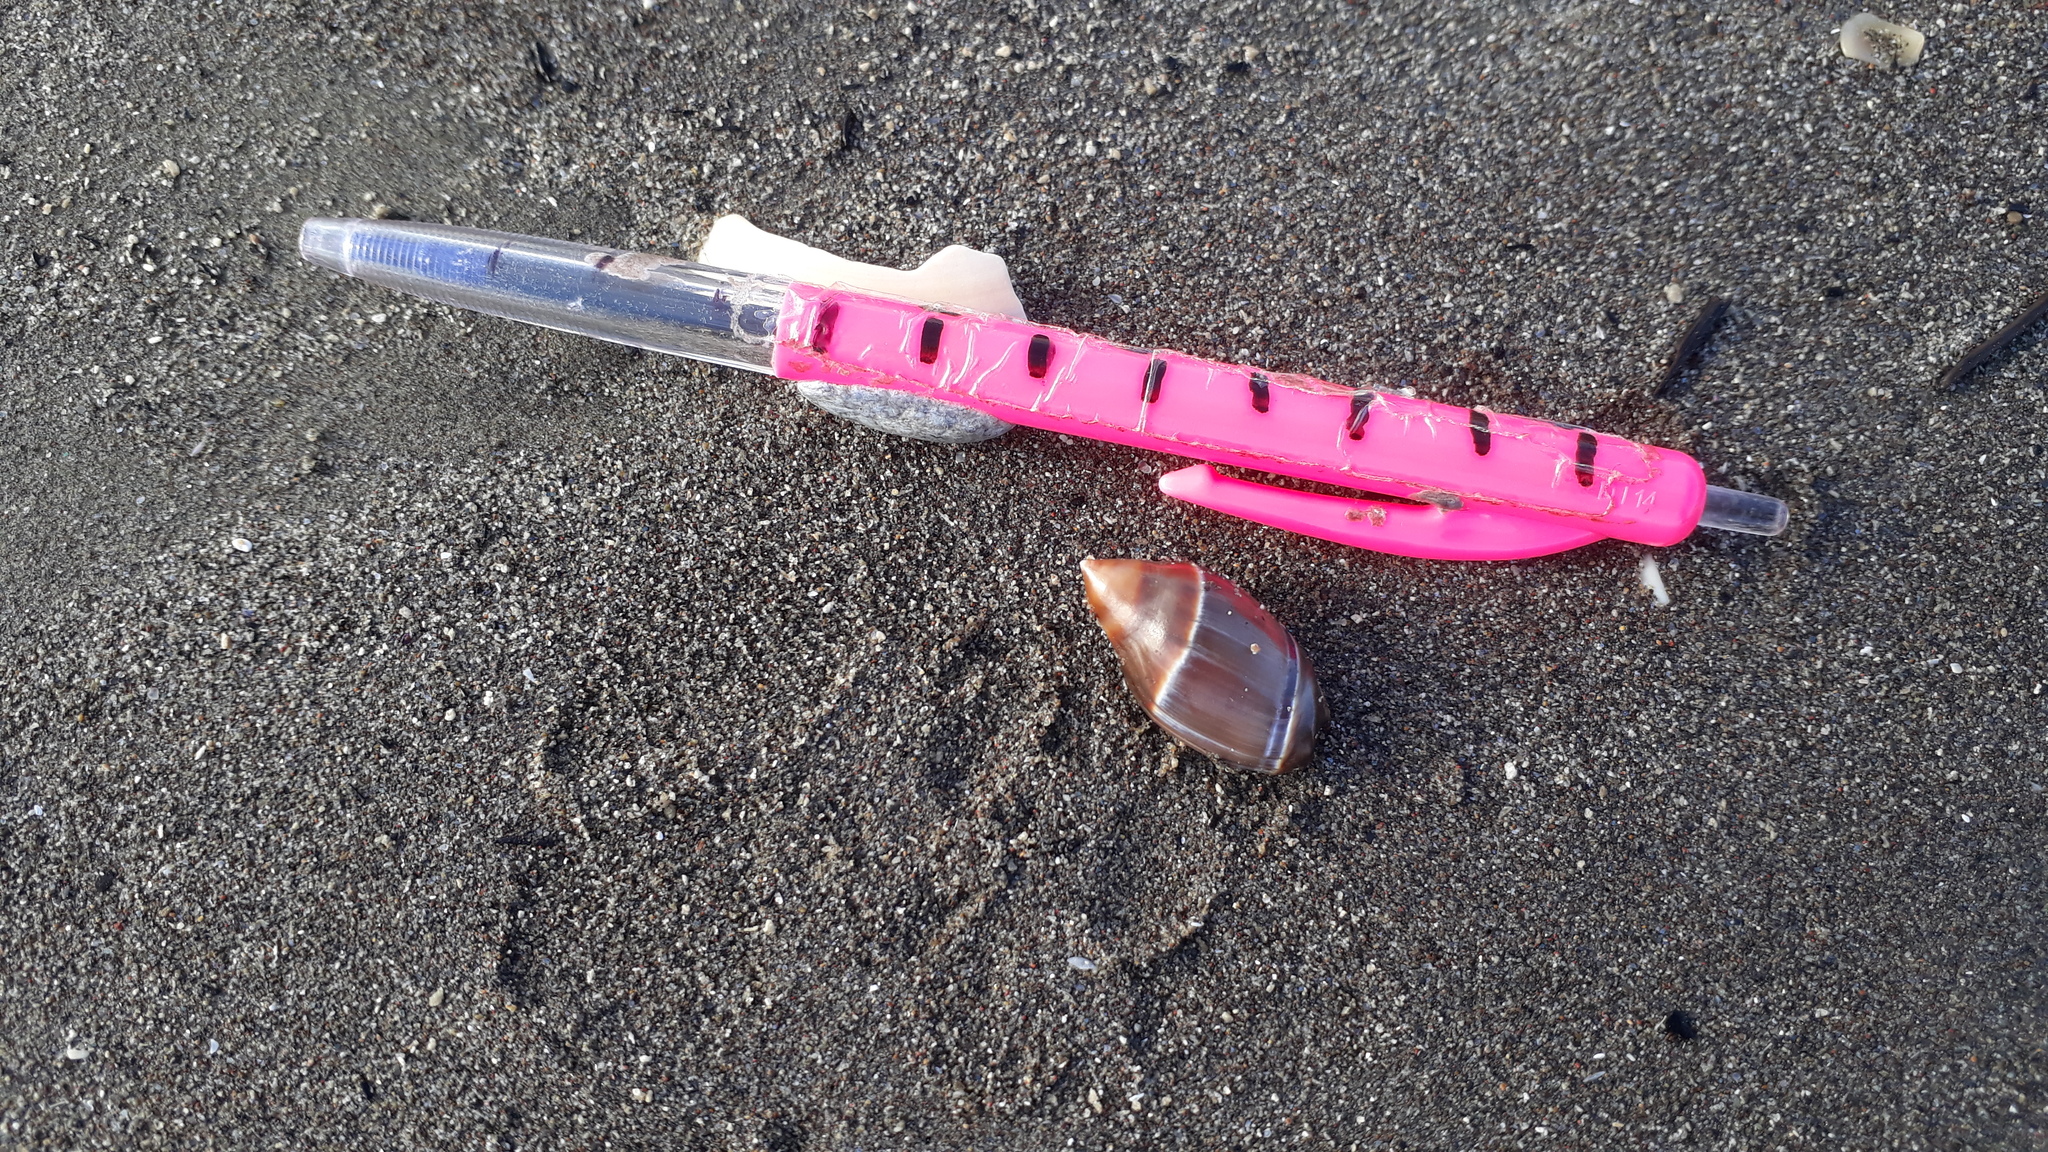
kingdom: Animalia
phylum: Mollusca
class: Gastropoda
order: Neogastropoda
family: Ancillariidae
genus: Amalda
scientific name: Amalda australis
